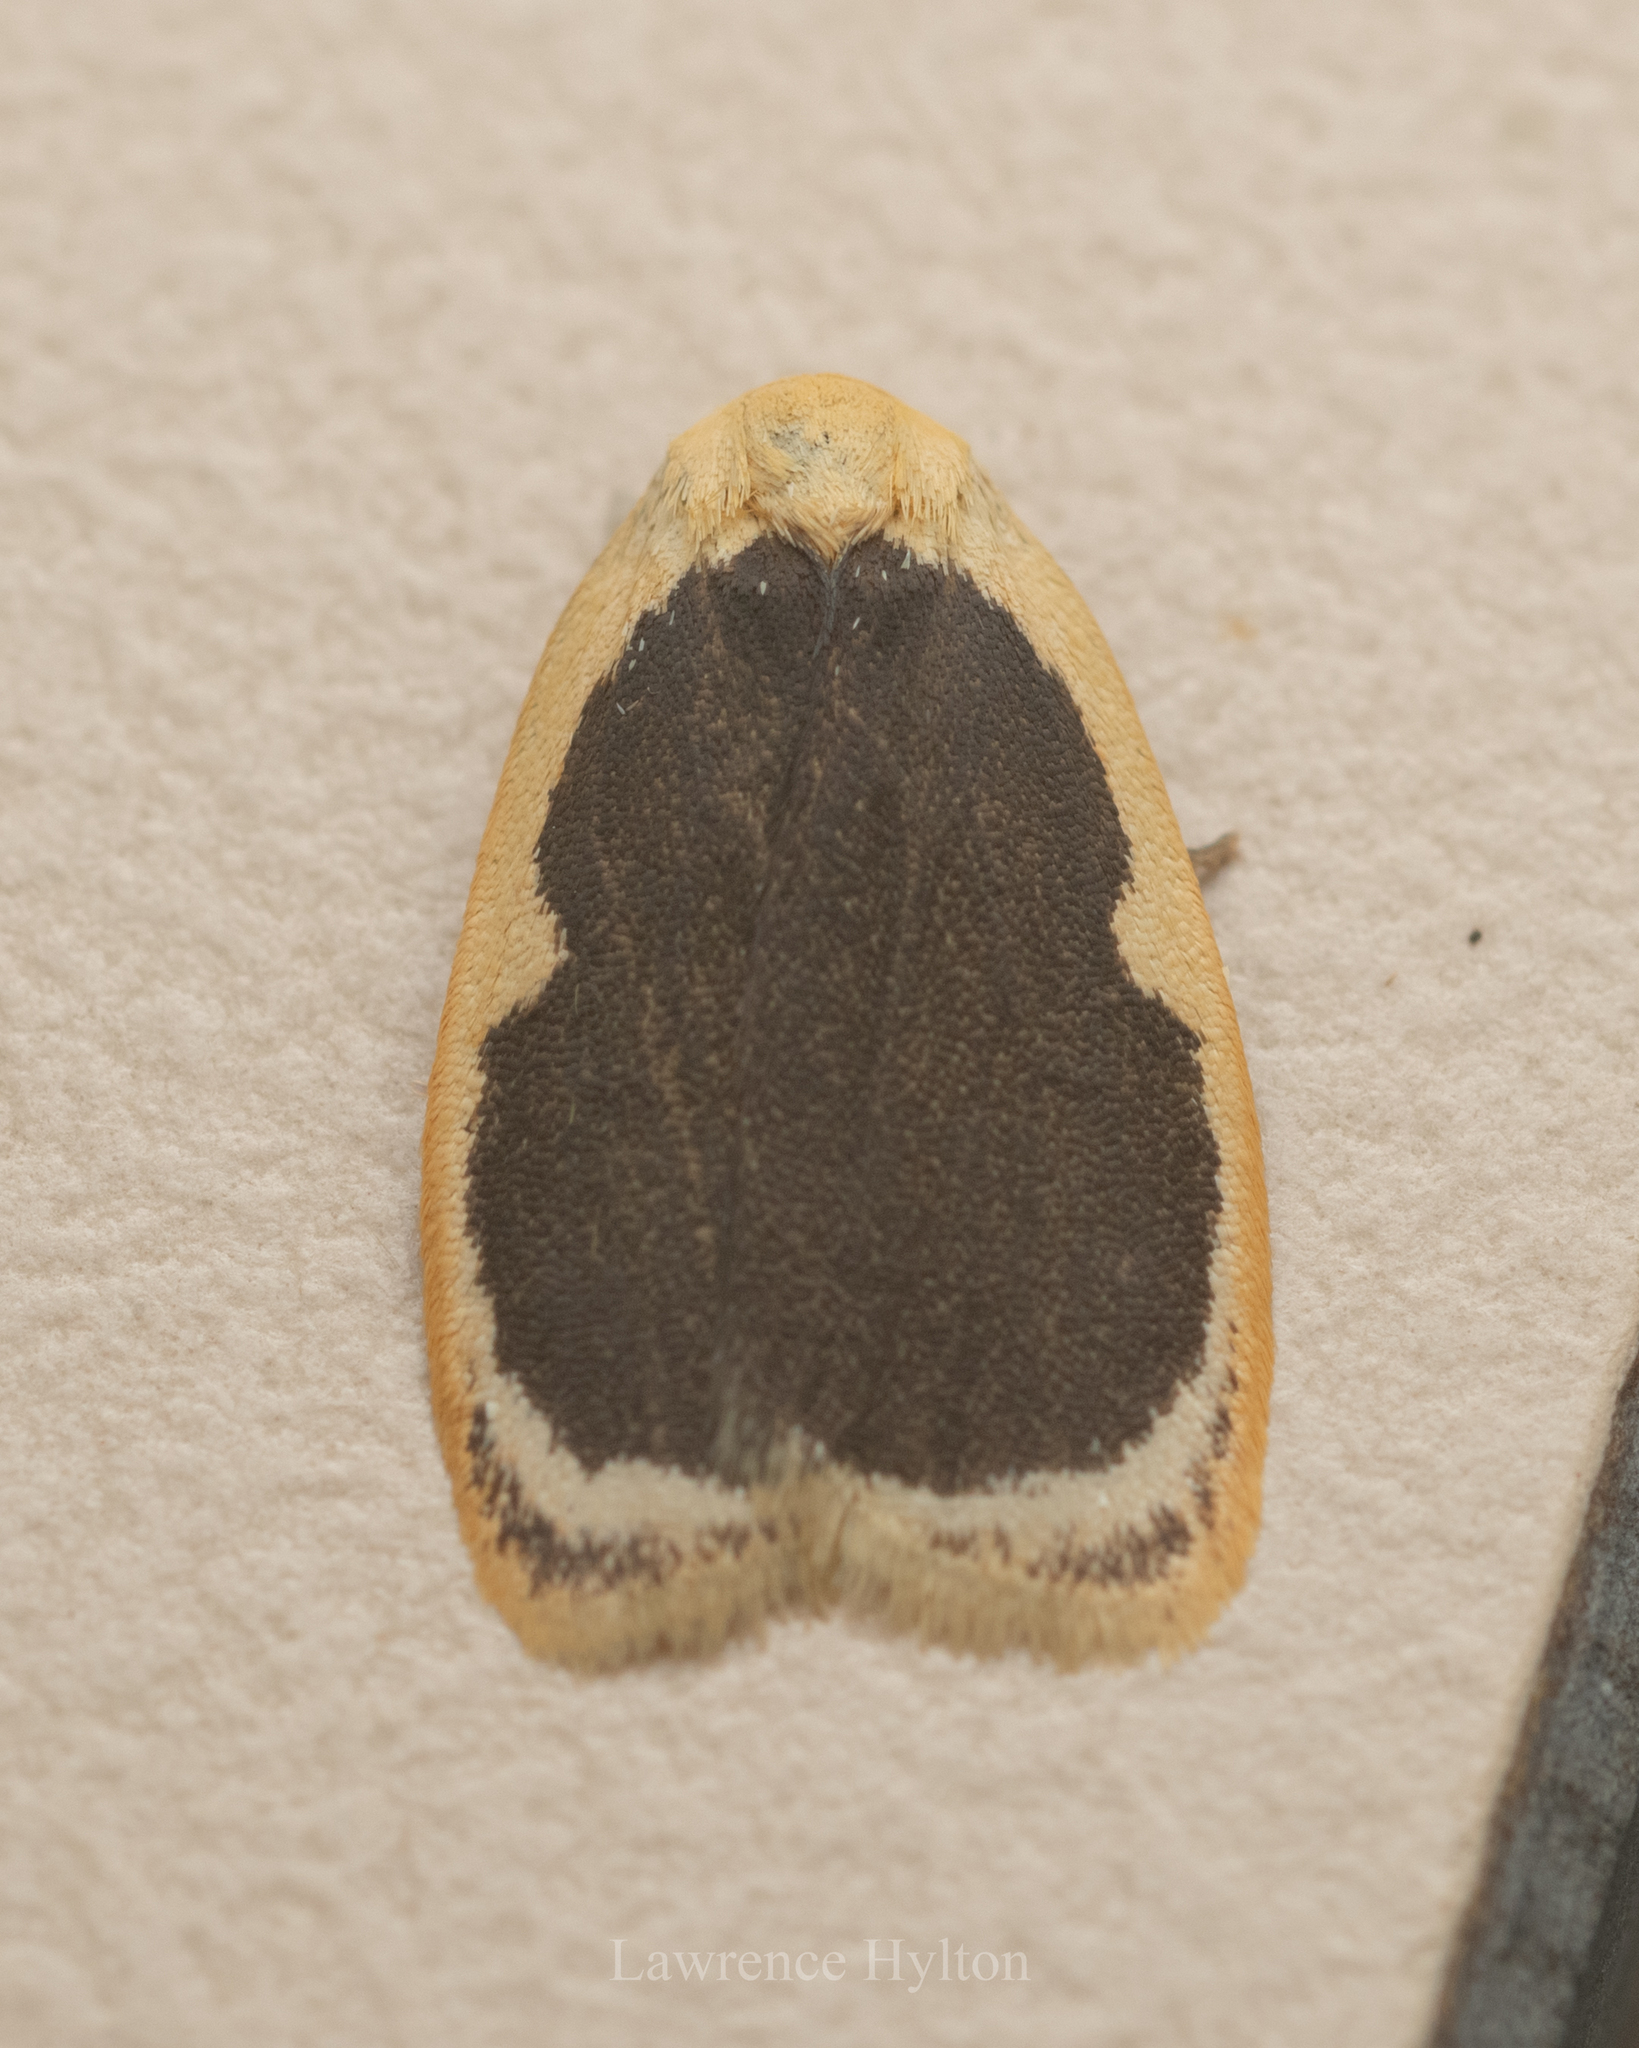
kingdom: Animalia
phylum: Arthropoda
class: Insecta
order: Lepidoptera
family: Erebidae
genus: Pseudoblabes
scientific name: Pseudoblabes oophora
